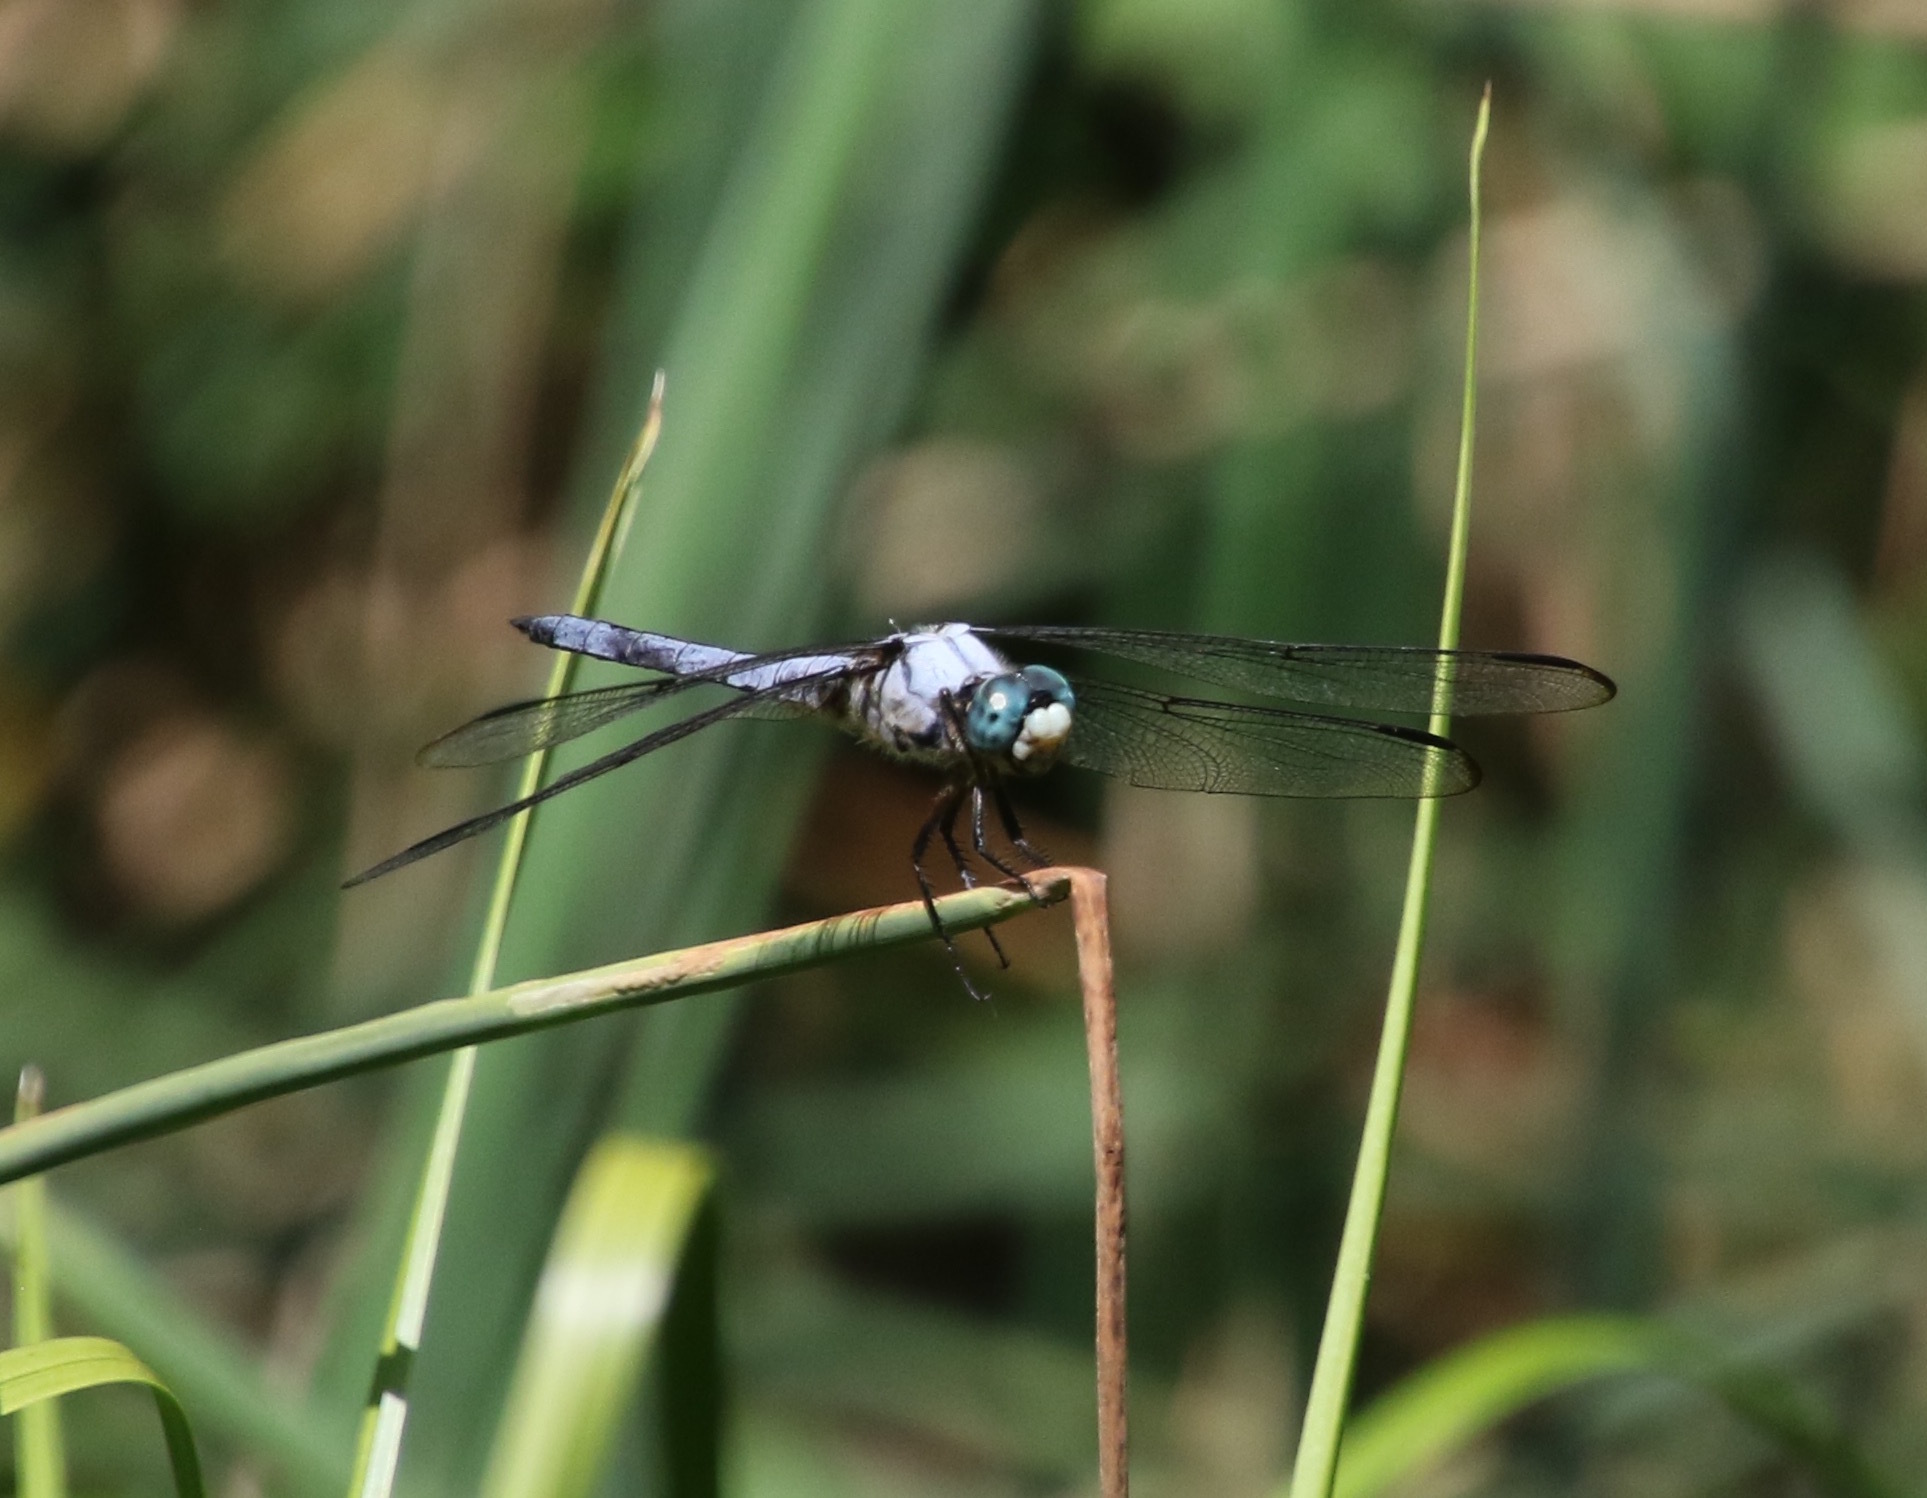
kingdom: Animalia
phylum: Arthropoda
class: Insecta
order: Odonata
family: Libellulidae
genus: Libellula
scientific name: Libellula vibrans
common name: Great blue skimmer
